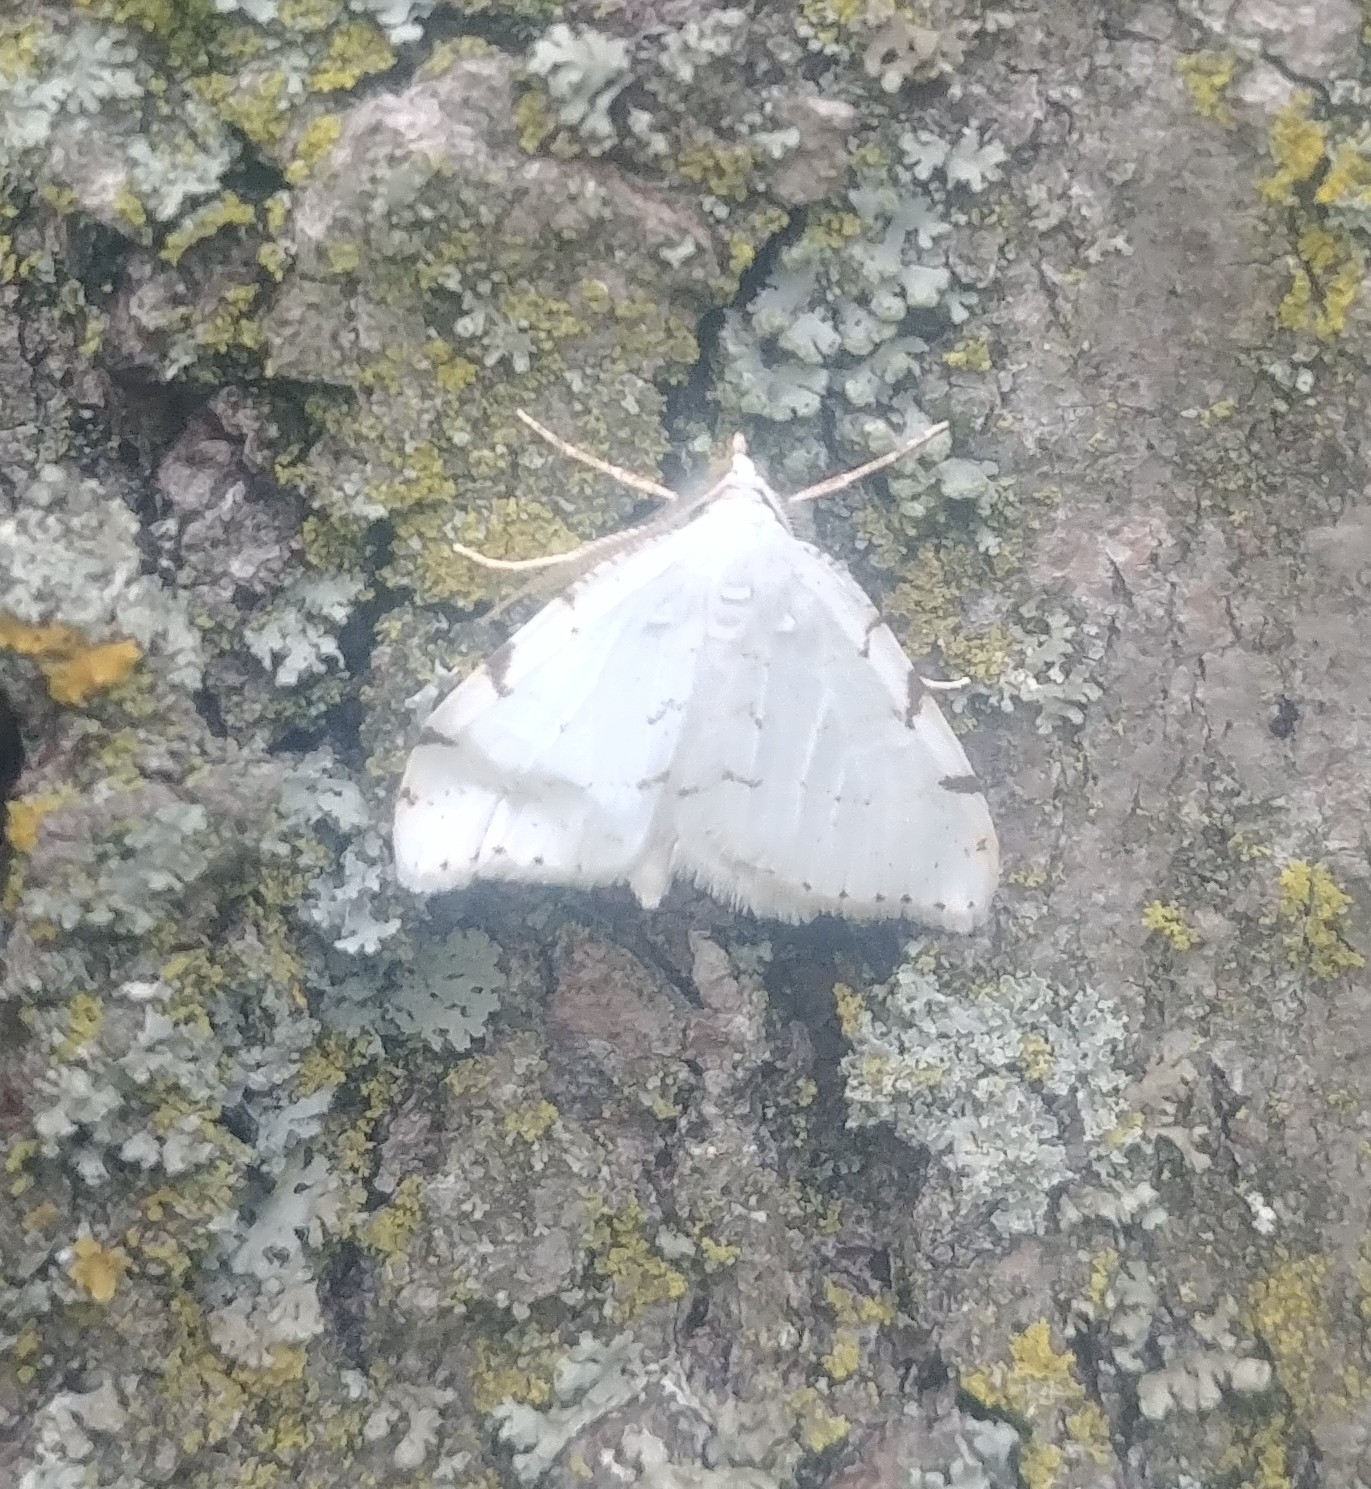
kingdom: Animalia
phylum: Arthropoda
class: Insecta
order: Lepidoptera
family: Geometridae
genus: Macaria
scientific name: Macaria pustularia
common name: Lesser maple spanworm moth
